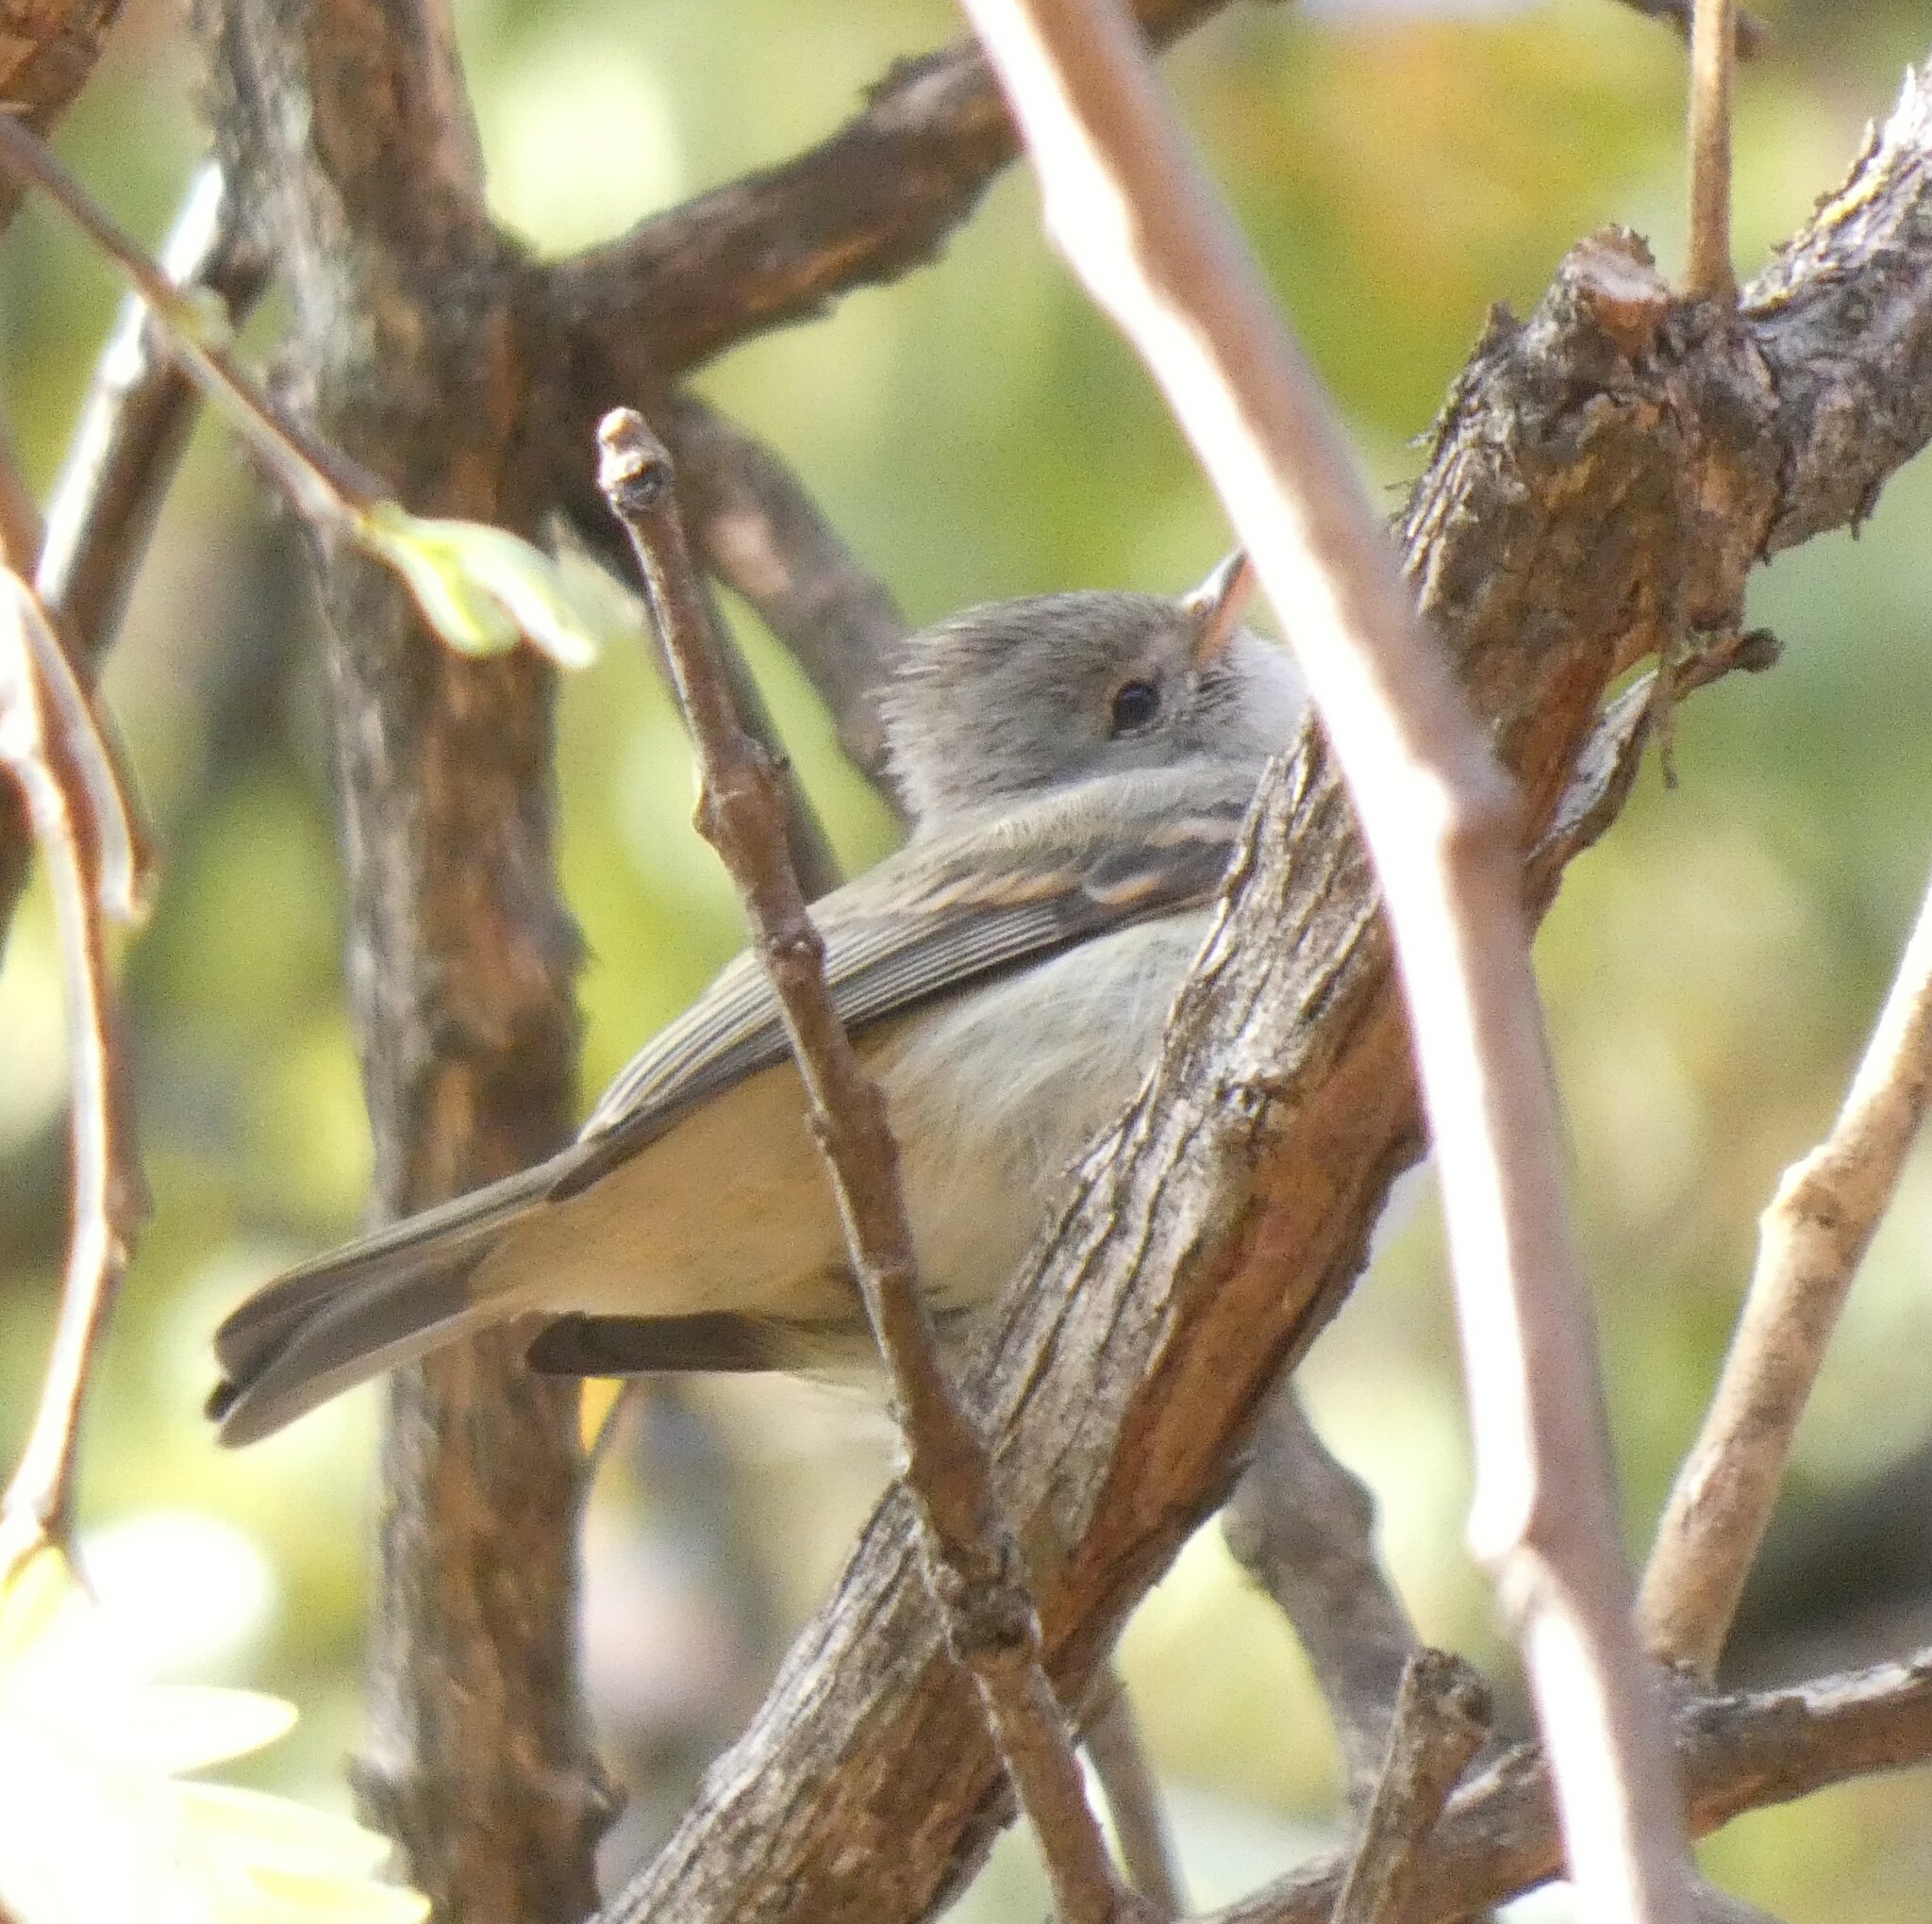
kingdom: Animalia
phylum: Chordata
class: Aves
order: Passeriformes
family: Tyrannidae
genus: Camptostoma
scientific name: Camptostoma obsoletum
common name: Southern beardless-tyrannulet
